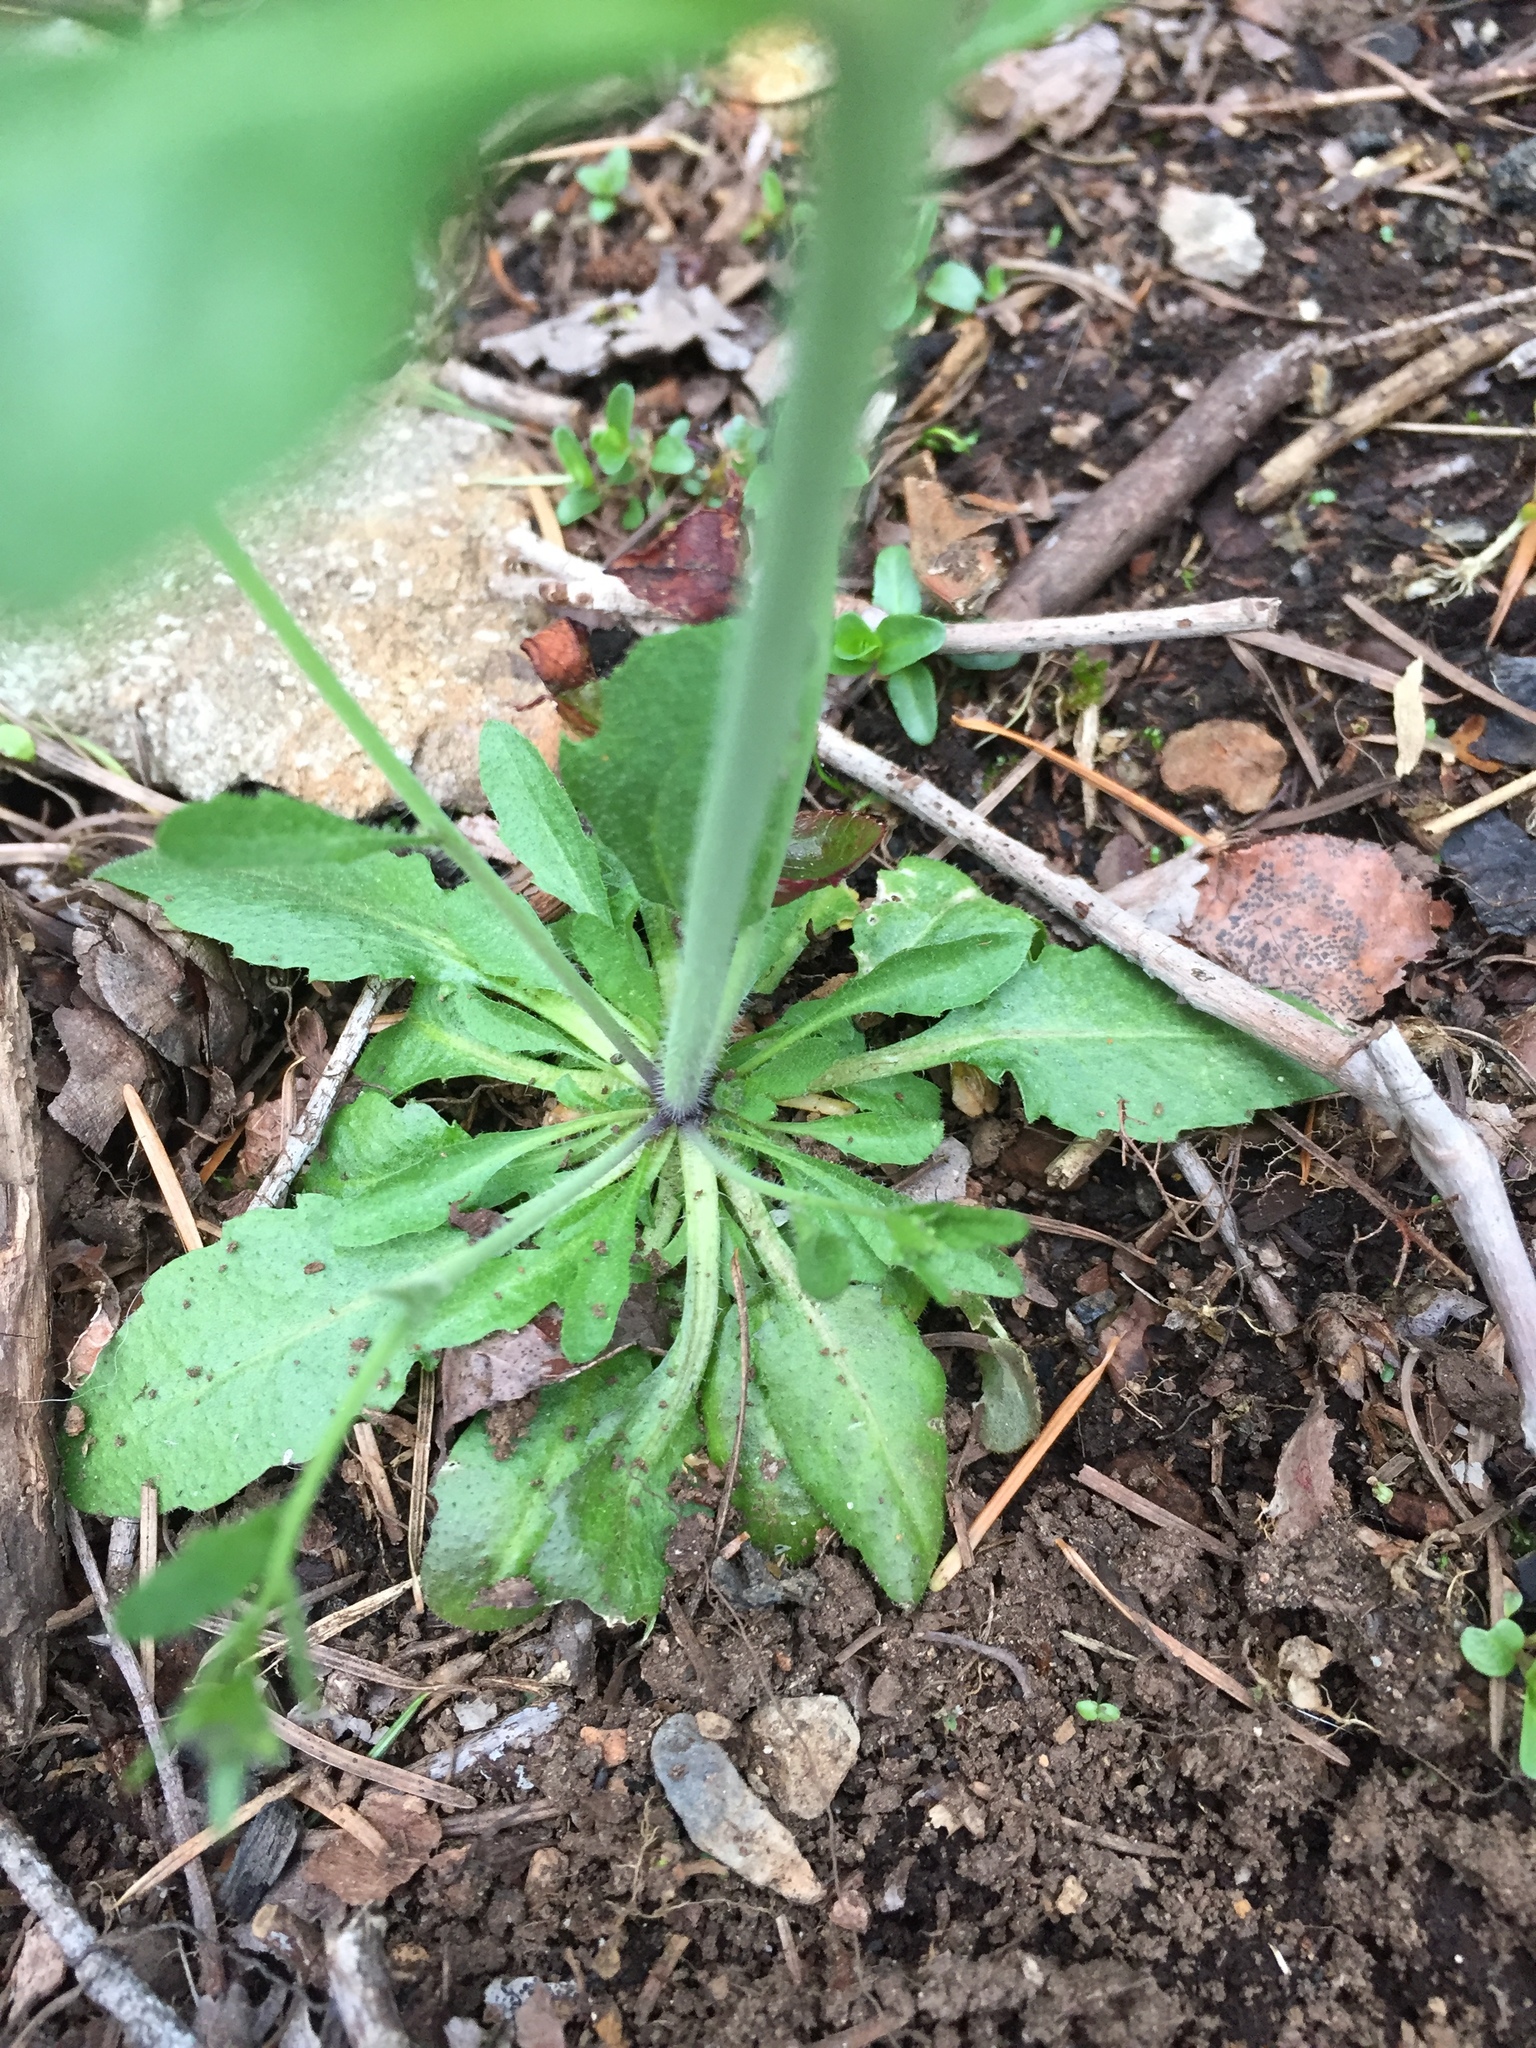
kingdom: Plantae
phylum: Tracheophyta
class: Magnoliopsida
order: Brassicales
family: Brassicaceae
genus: Arabidopsis
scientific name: Arabidopsis thaliana
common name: Thale cress
